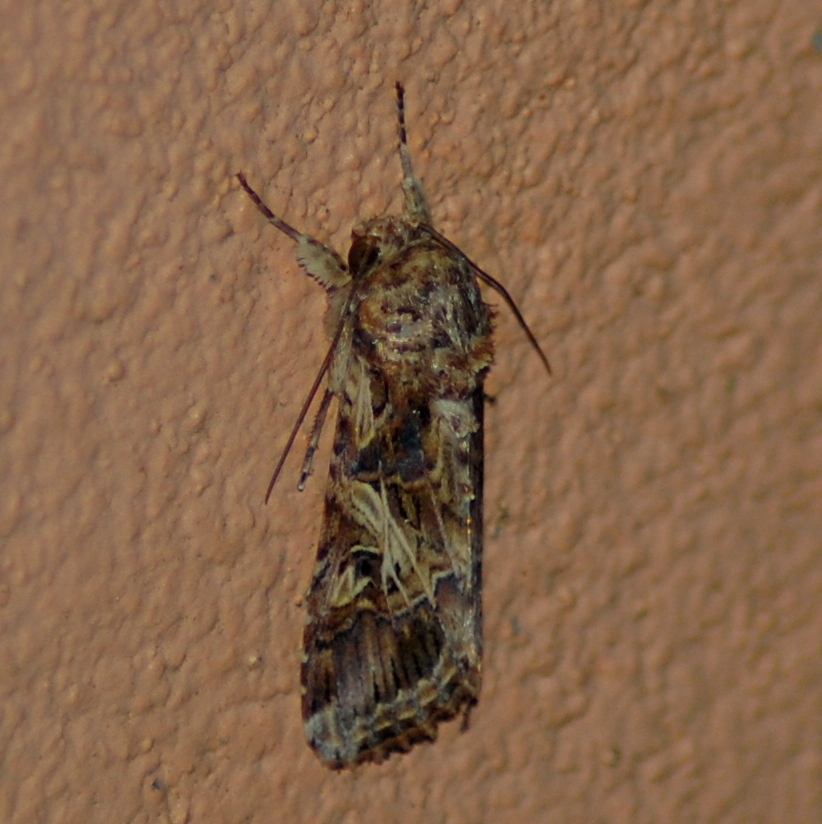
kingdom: Animalia
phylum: Arthropoda
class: Insecta
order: Lepidoptera
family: Noctuidae
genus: Spodoptera
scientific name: Spodoptera cosmioides
